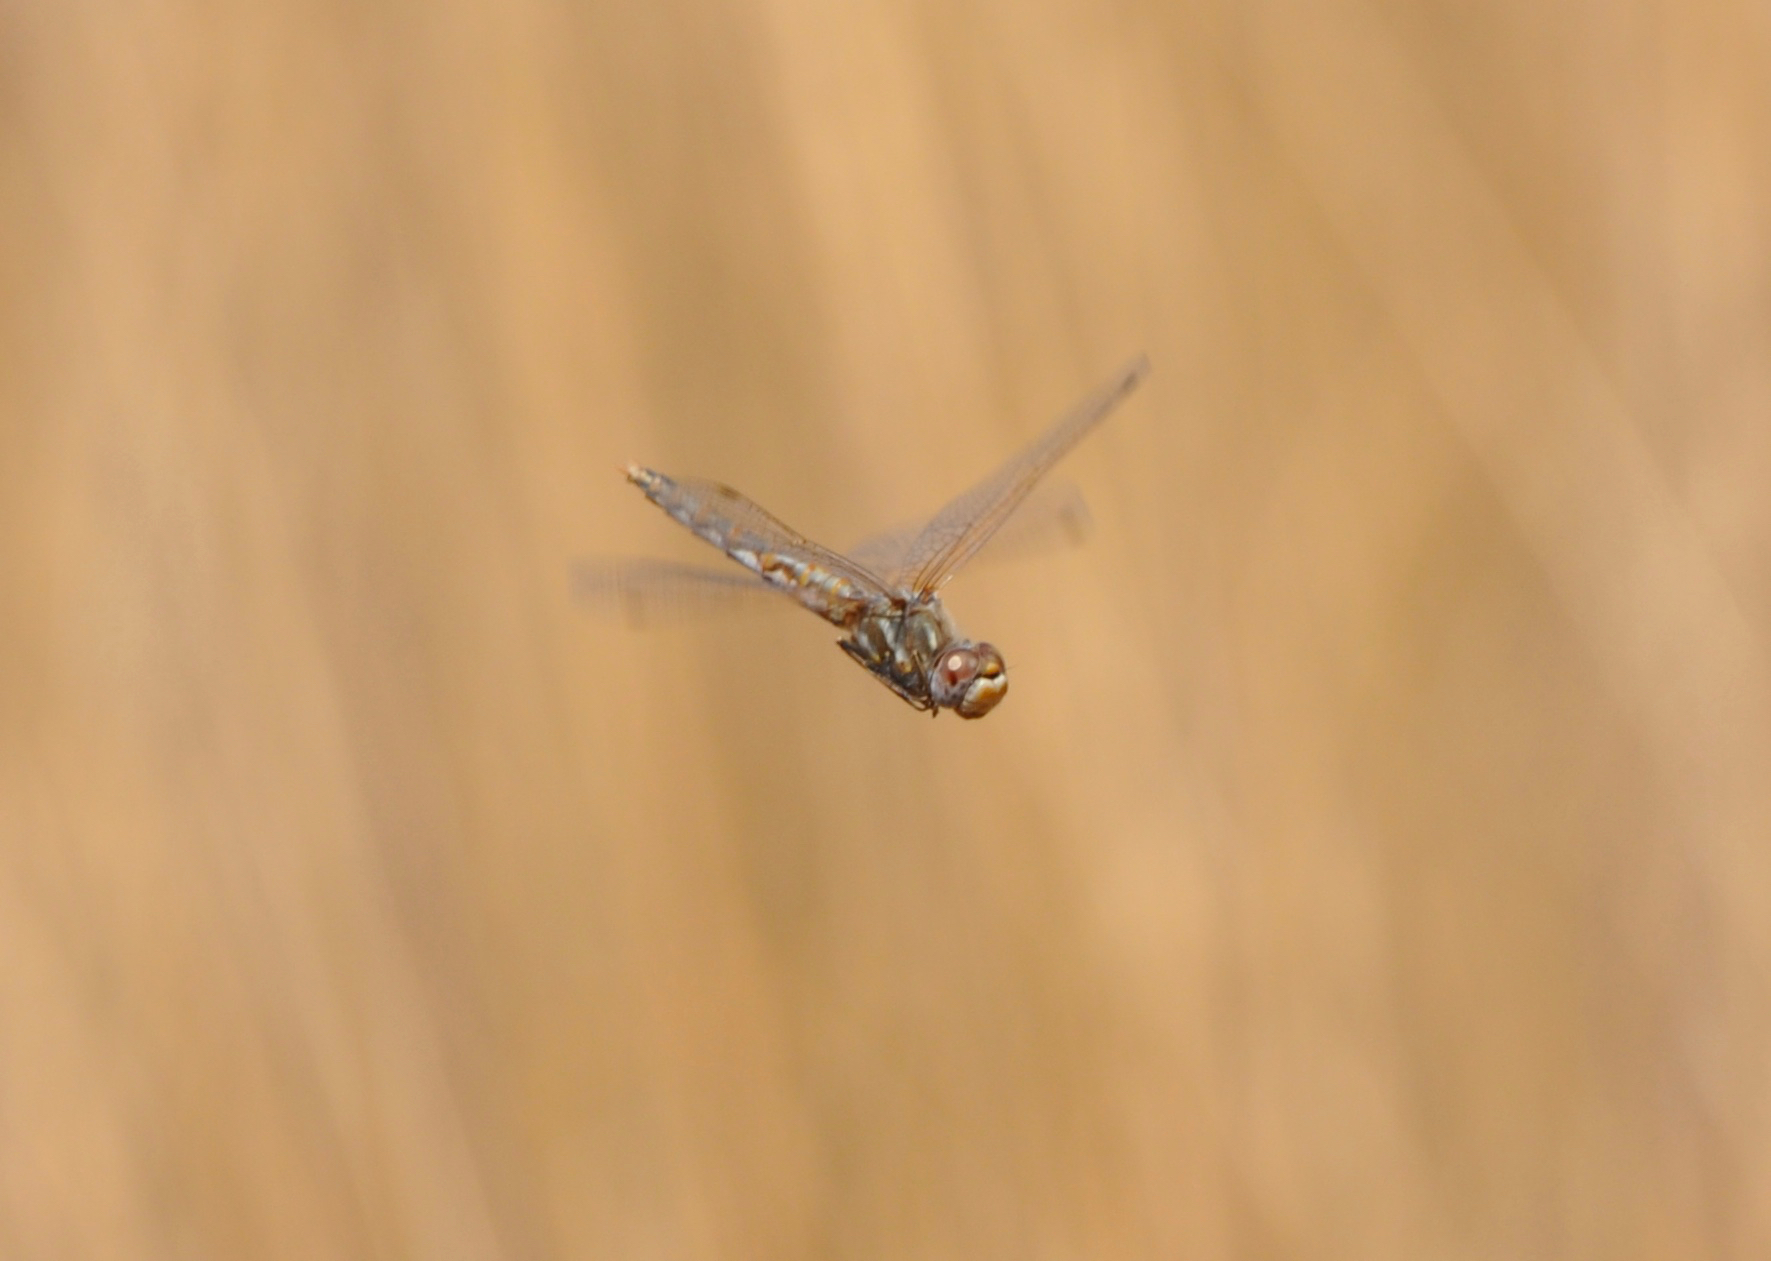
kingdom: Animalia
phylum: Arthropoda
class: Insecta
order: Odonata
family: Libellulidae
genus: Sympetrum
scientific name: Sympetrum corruptum
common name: Variegated meadowhawk
